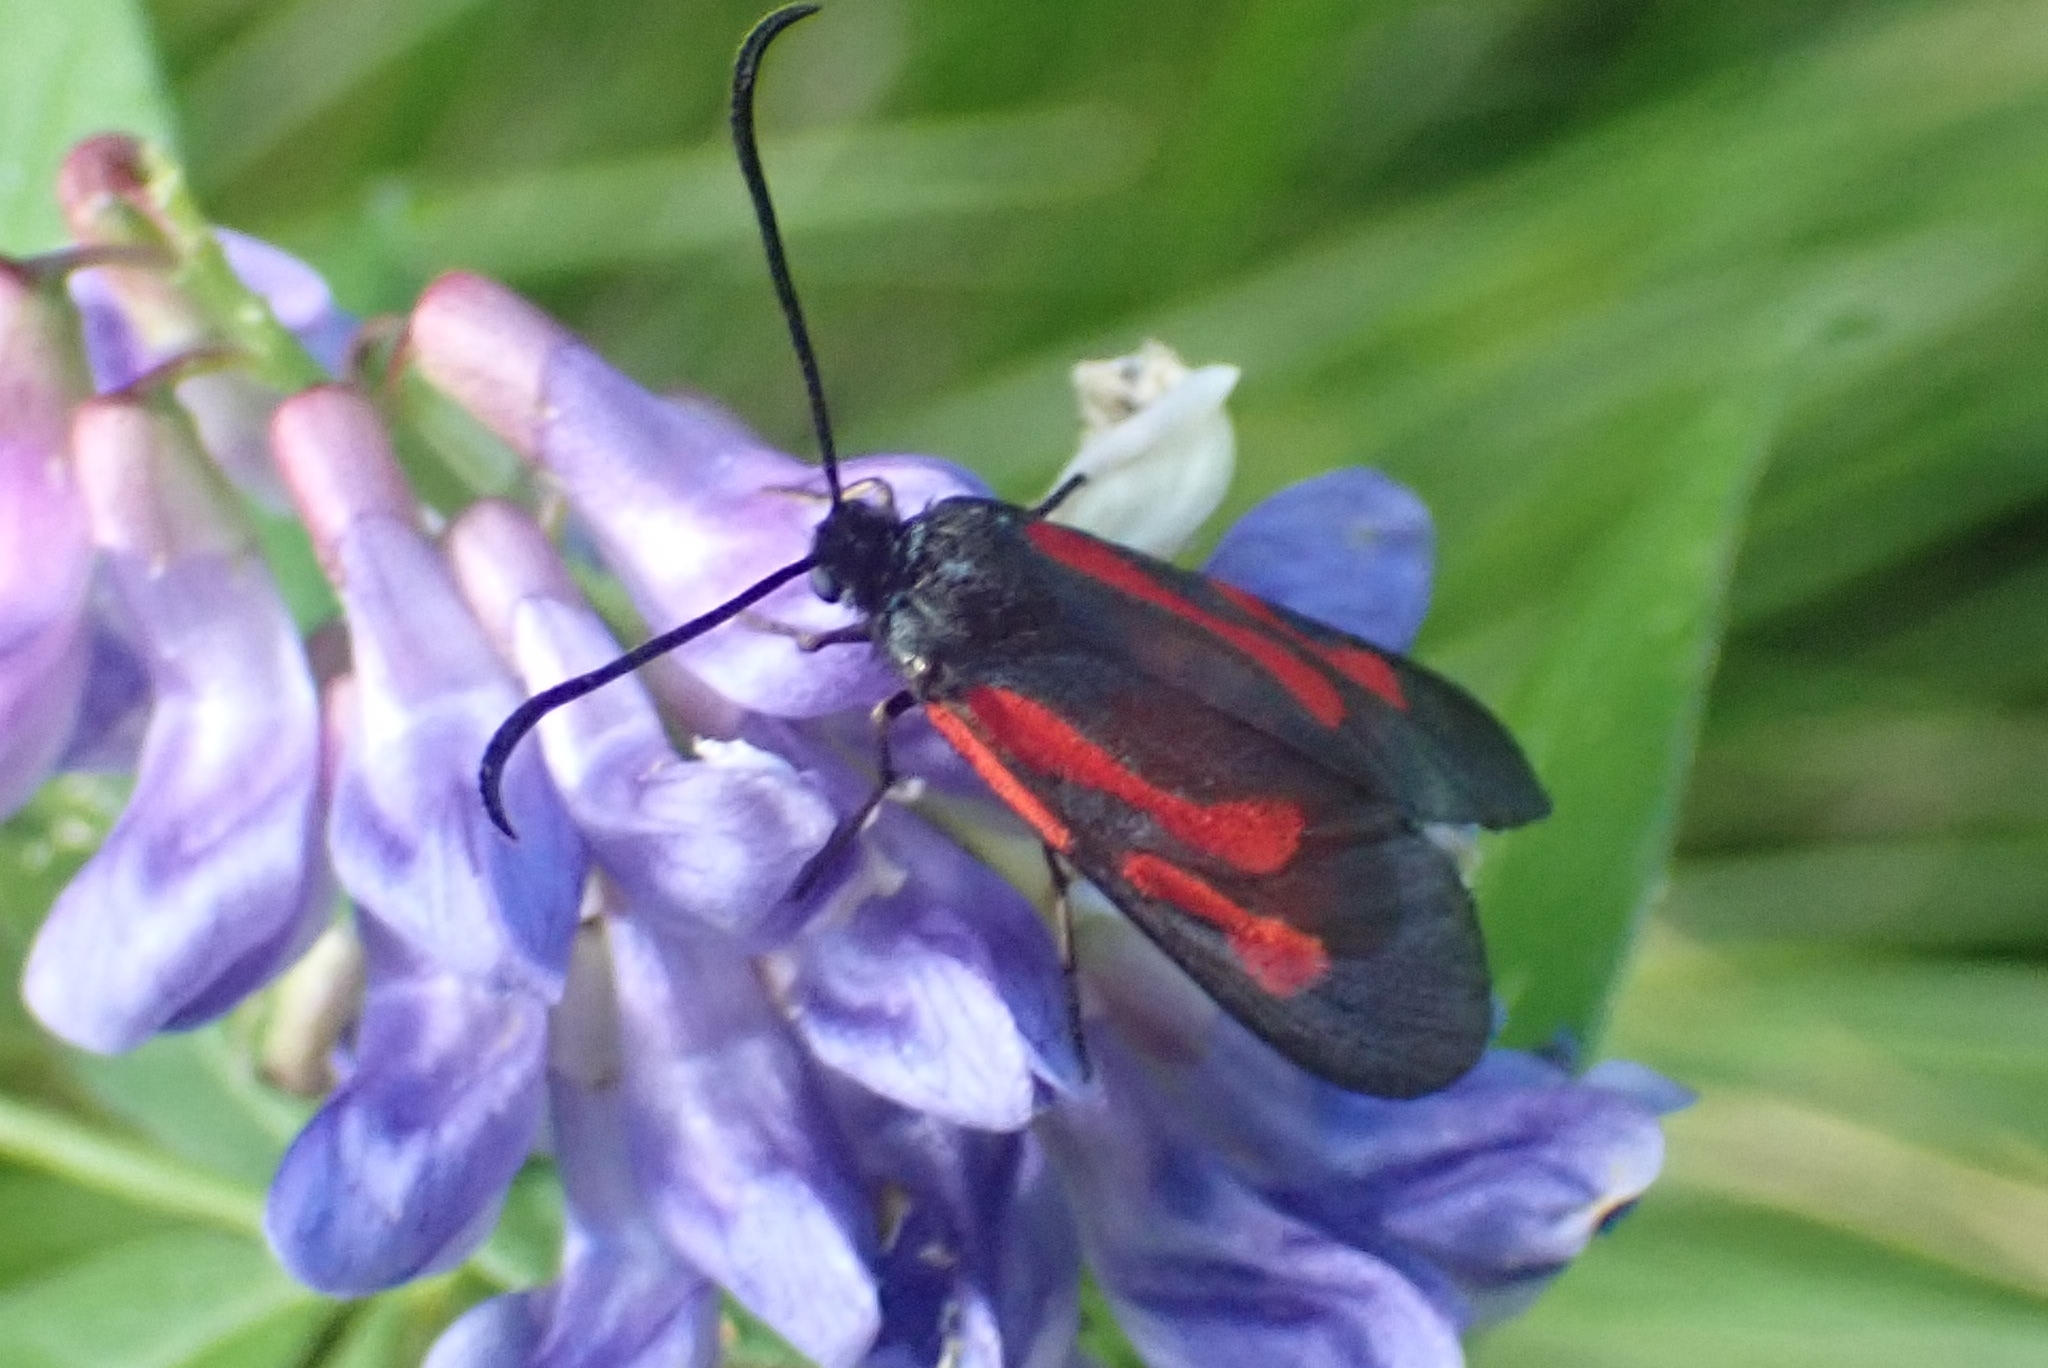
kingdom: Animalia
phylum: Arthropoda
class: Insecta
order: Lepidoptera
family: Zygaenidae
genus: Zygaena
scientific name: Zygaena osterodensis
